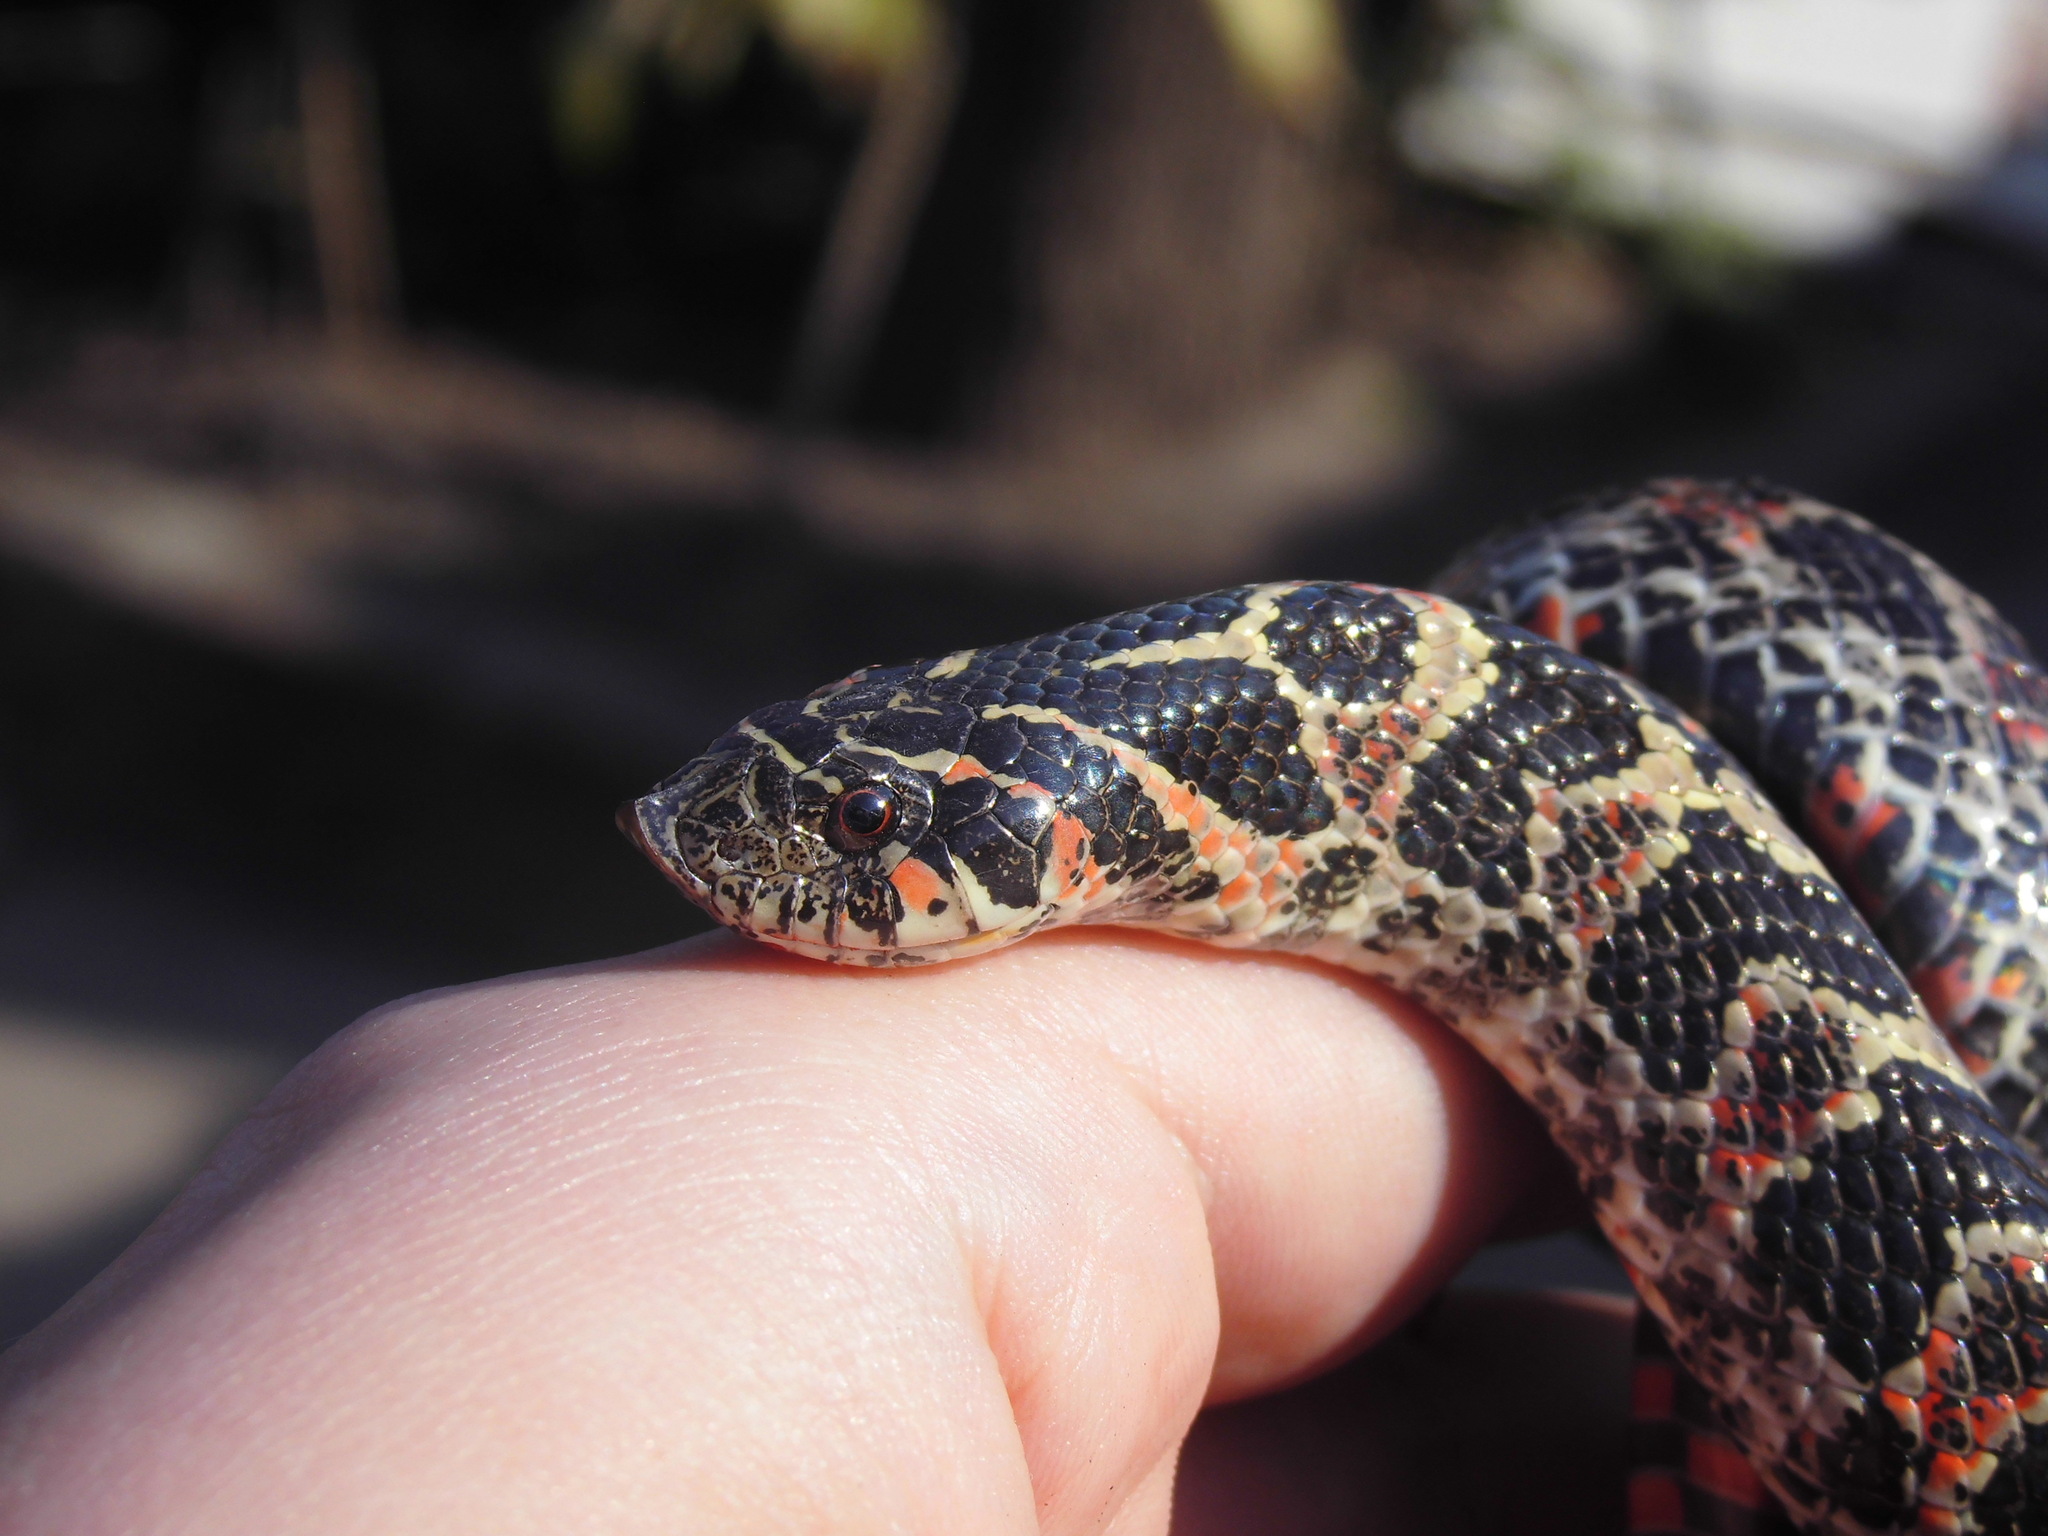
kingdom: Animalia
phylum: Chordata
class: Squamata
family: Colubridae
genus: Xenodon
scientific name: Xenodon dorbignyi
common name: South american hognose snake
